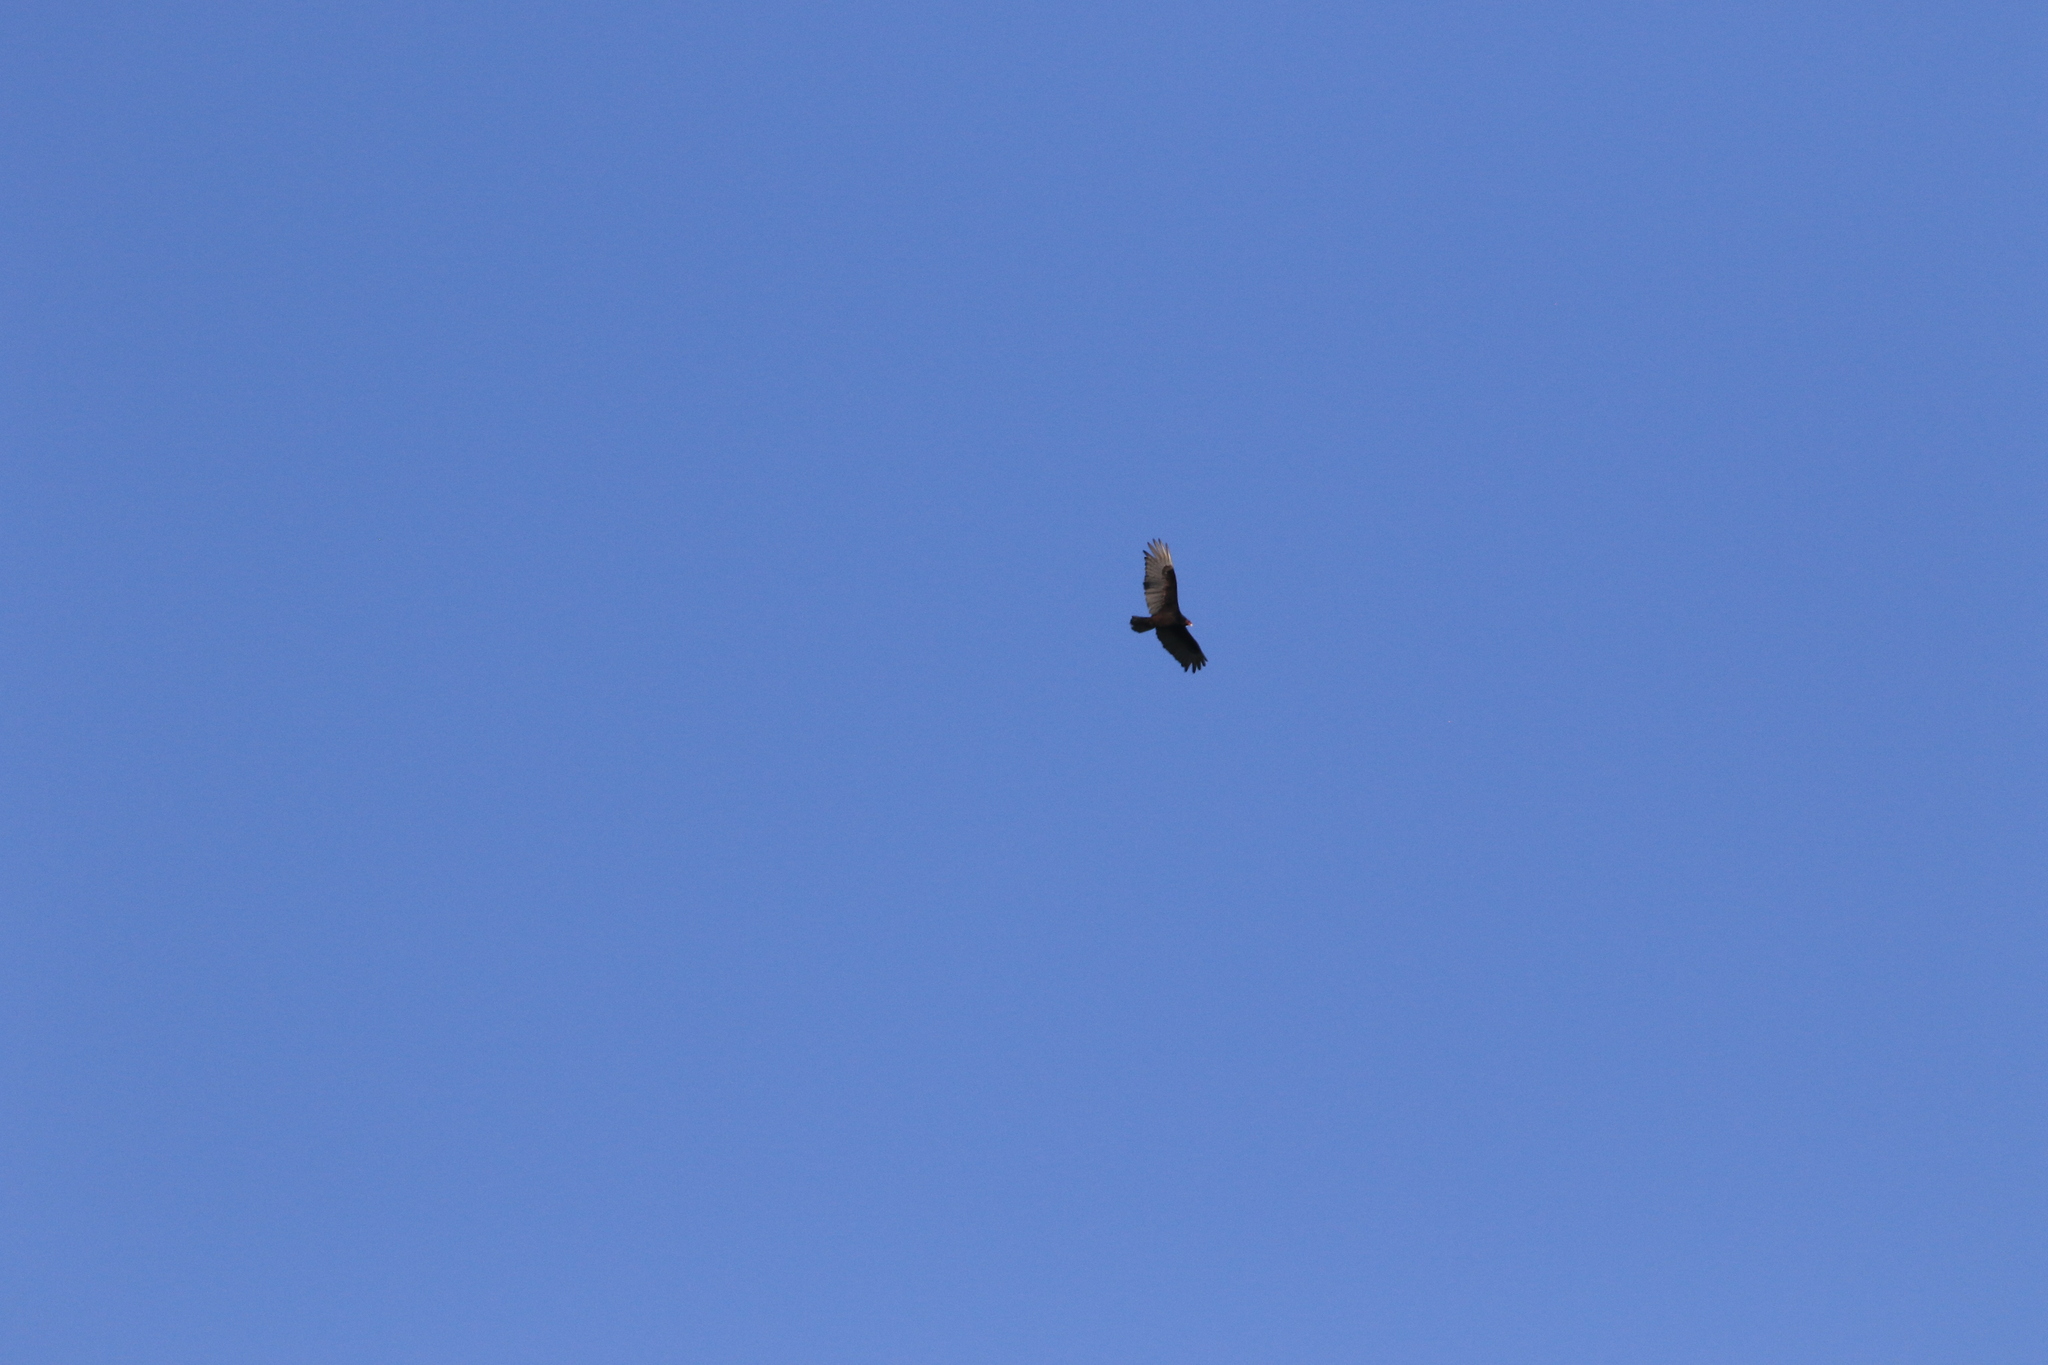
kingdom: Animalia
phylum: Chordata
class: Aves
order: Accipitriformes
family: Cathartidae
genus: Cathartes
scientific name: Cathartes aura
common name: Turkey vulture
